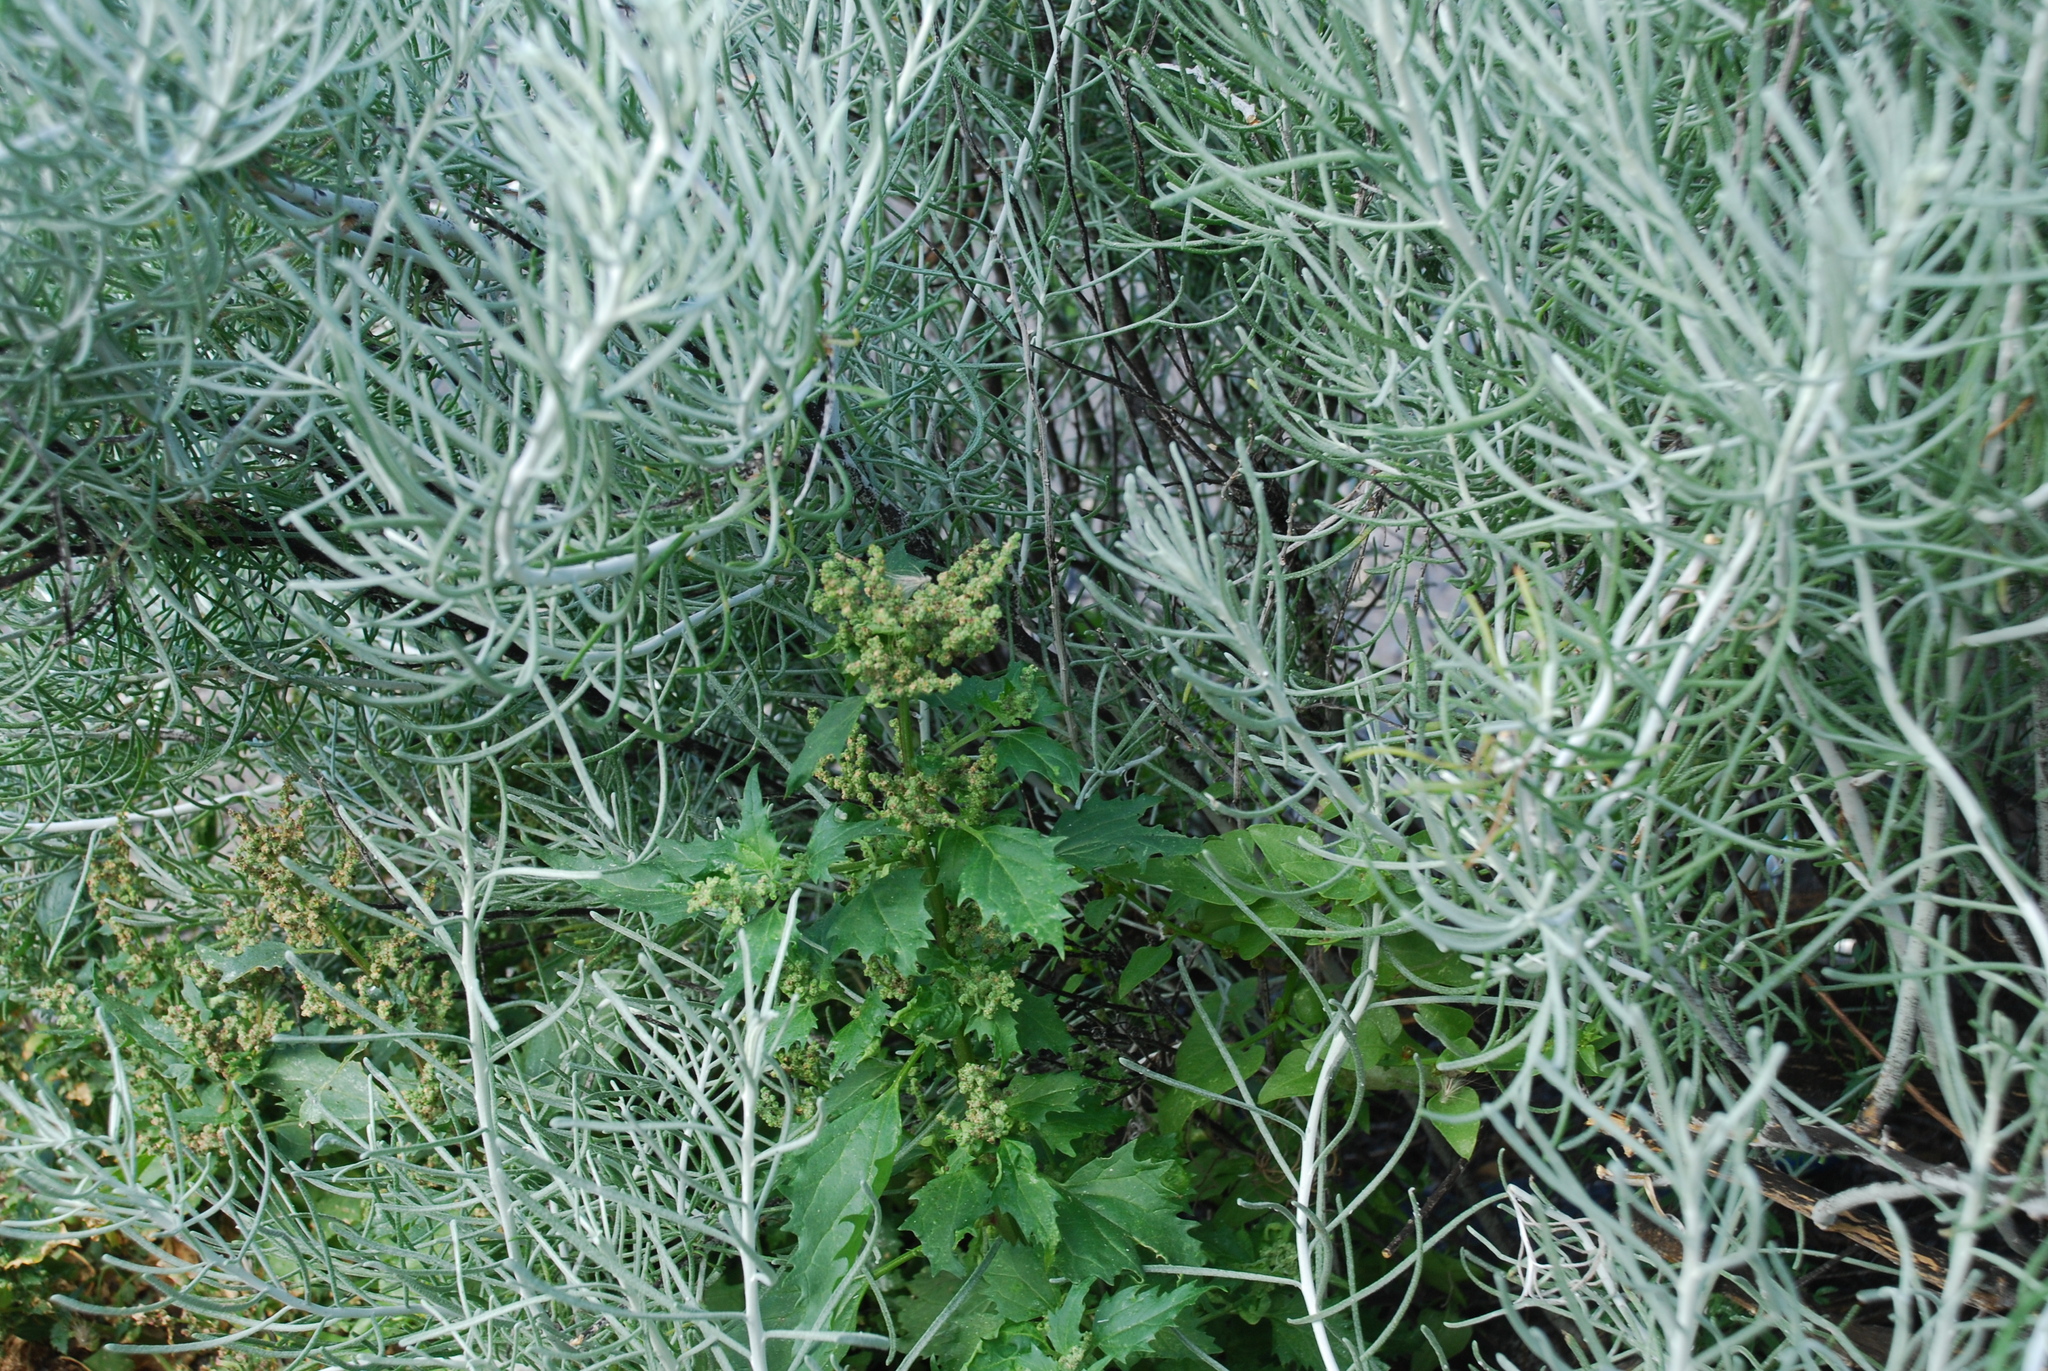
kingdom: Plantae
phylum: Tracheophyta
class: Magnoliopsida
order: Asterales
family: Asteraceae
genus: Schizogyne
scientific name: Schizogyne sericea
